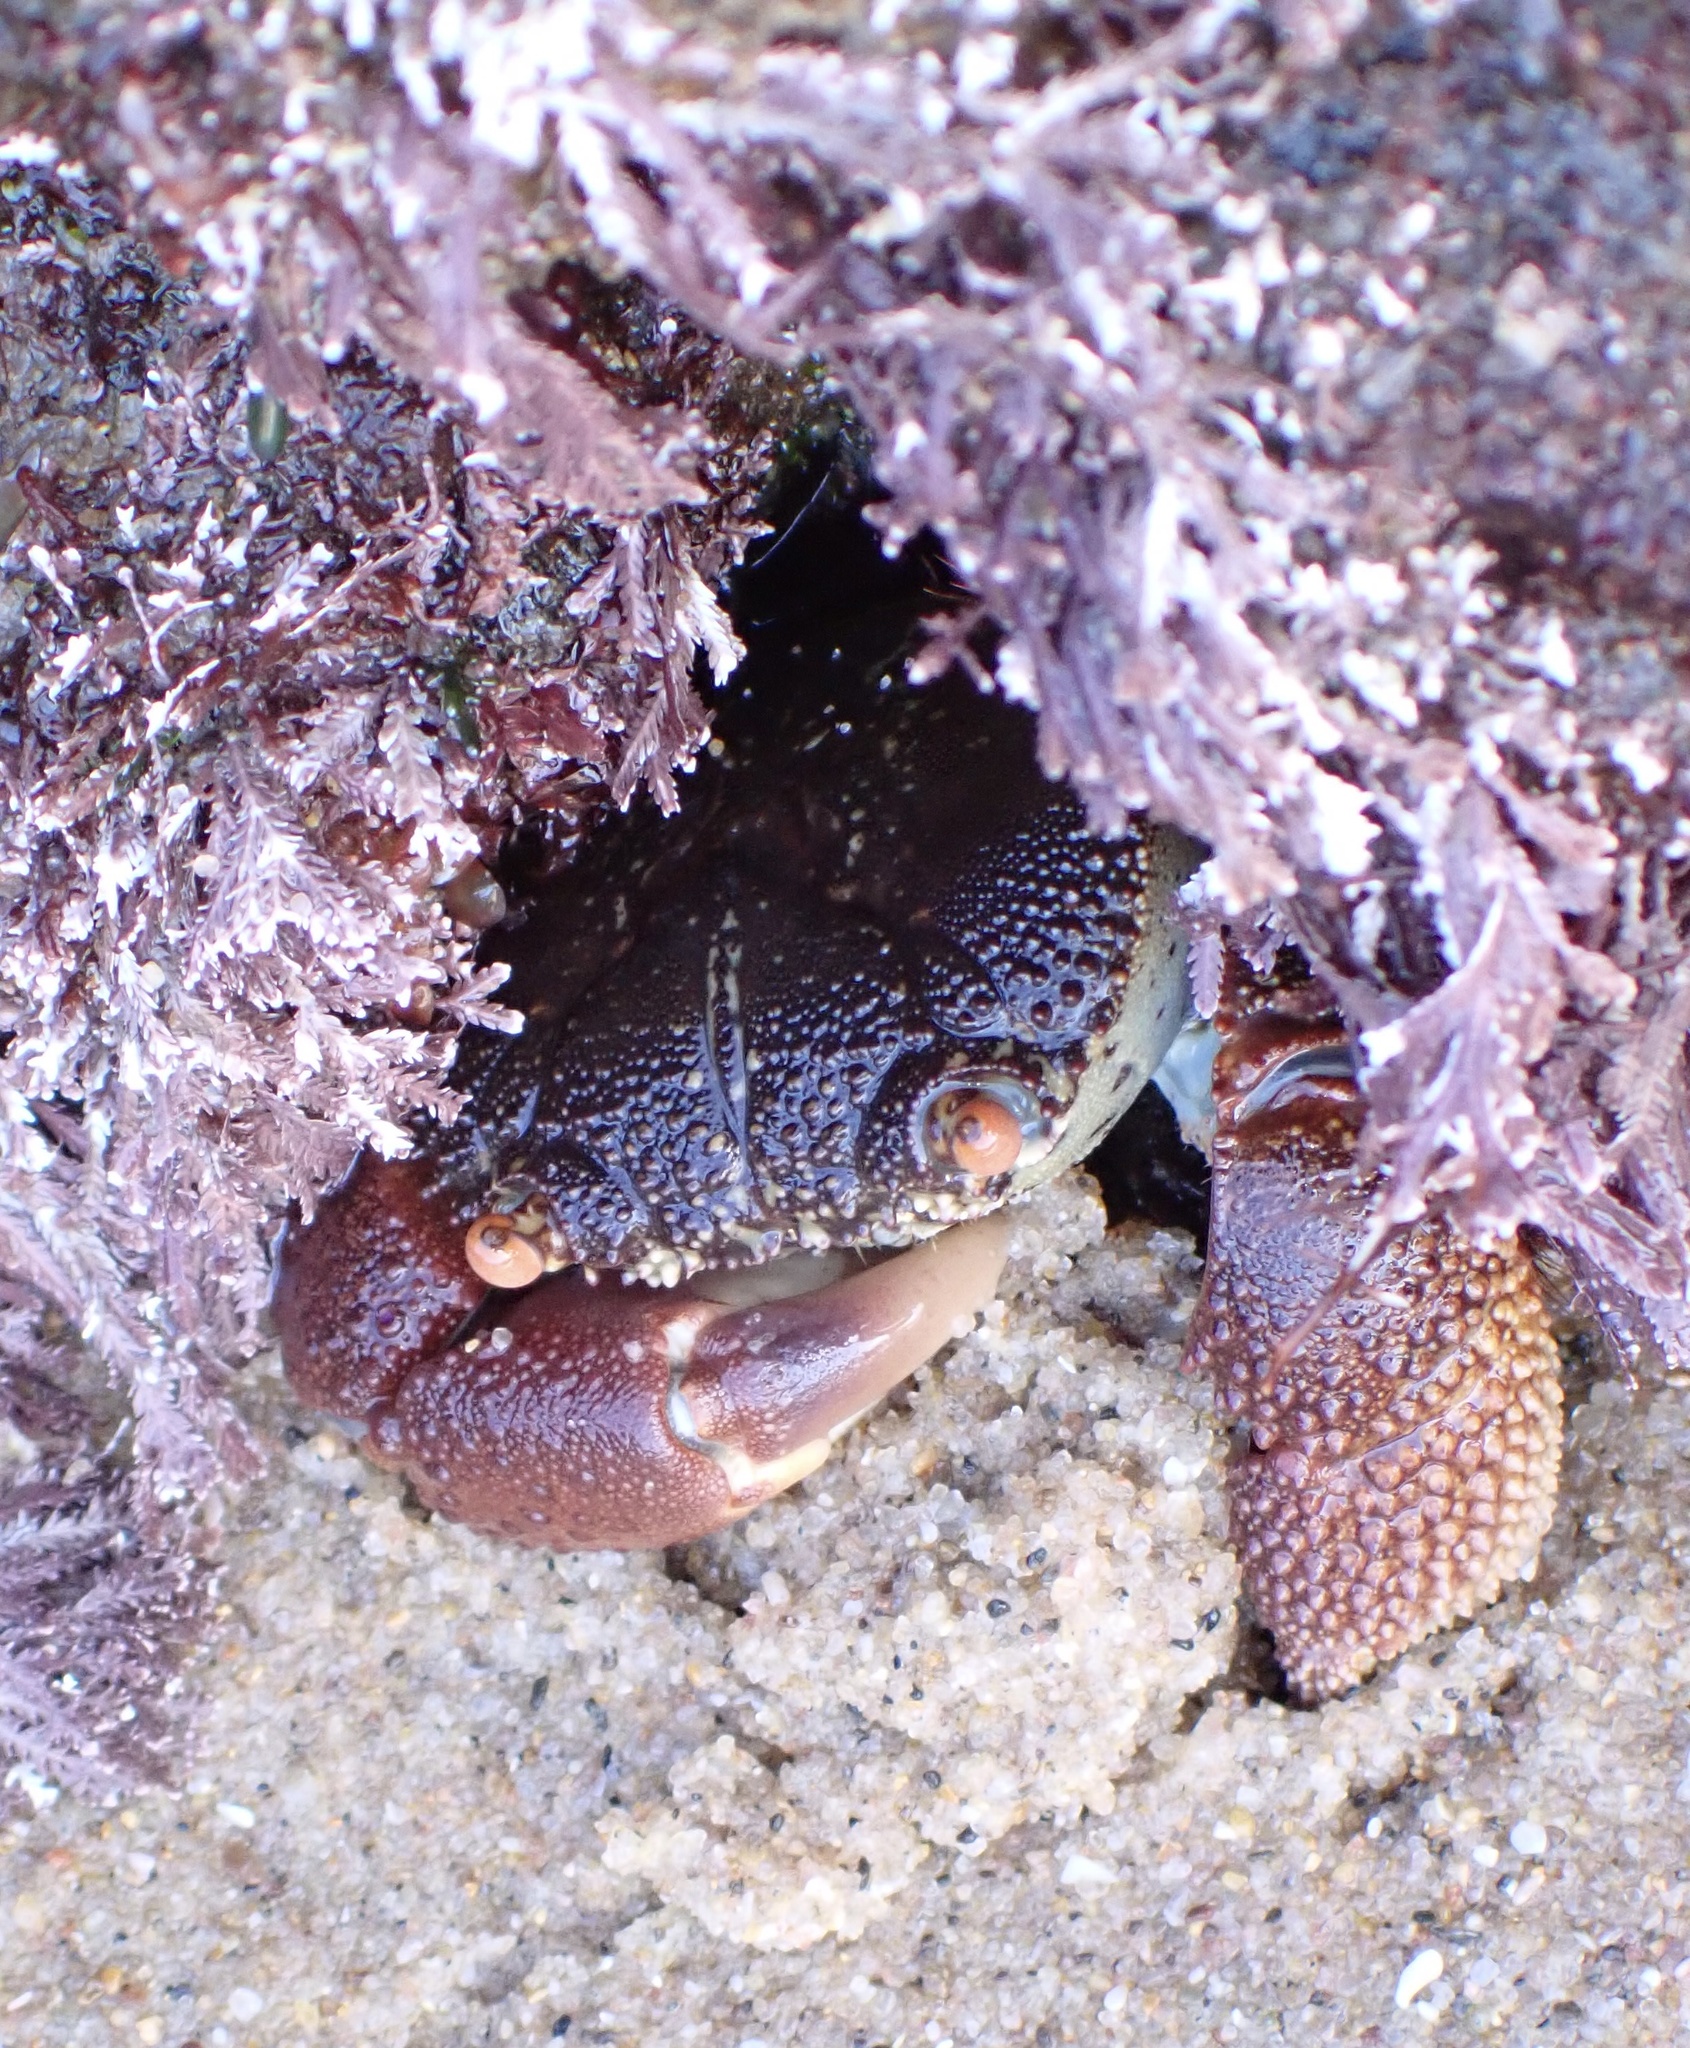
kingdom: Animalia
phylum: Arthropoda
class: Malacostraca
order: Decapoda
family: Eriphiidae
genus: Eriphia
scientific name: Eriphia smithii
